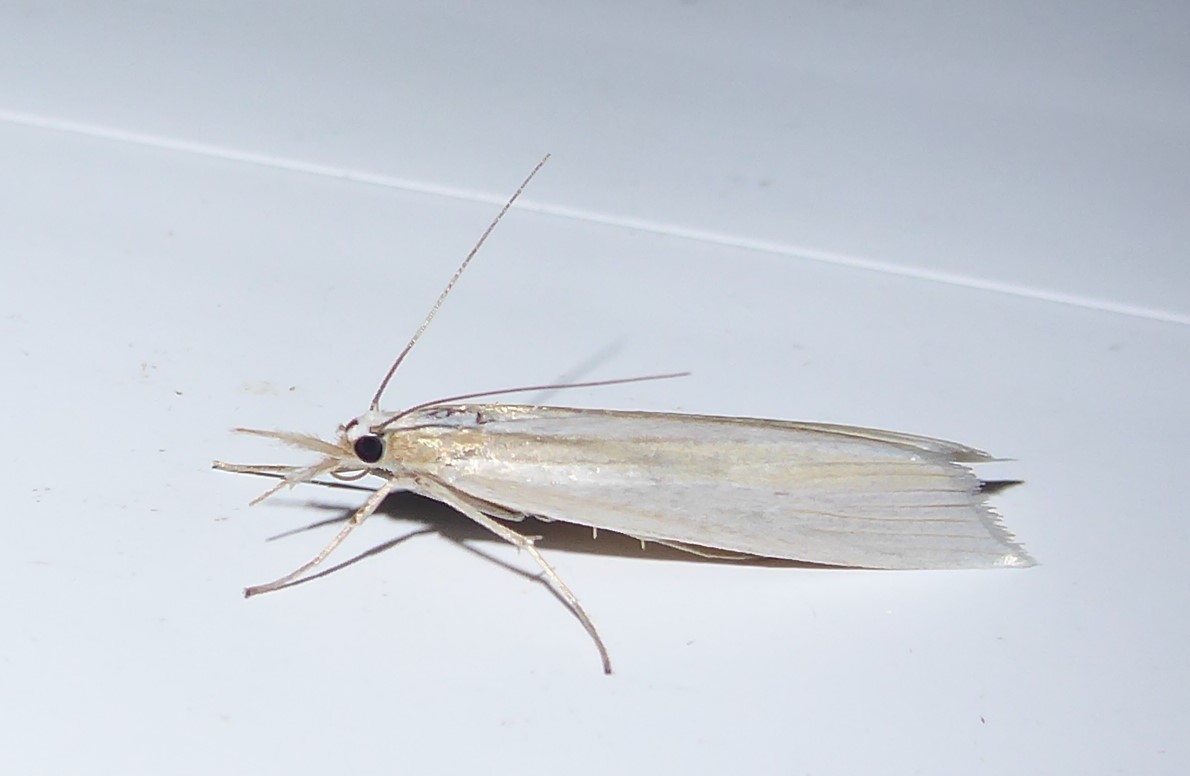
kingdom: Animalia
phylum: Arthropoda
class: Insecta
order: Lepidoptera
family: Crambidae
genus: Orocrambus
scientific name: Orocrambus angustipennis
